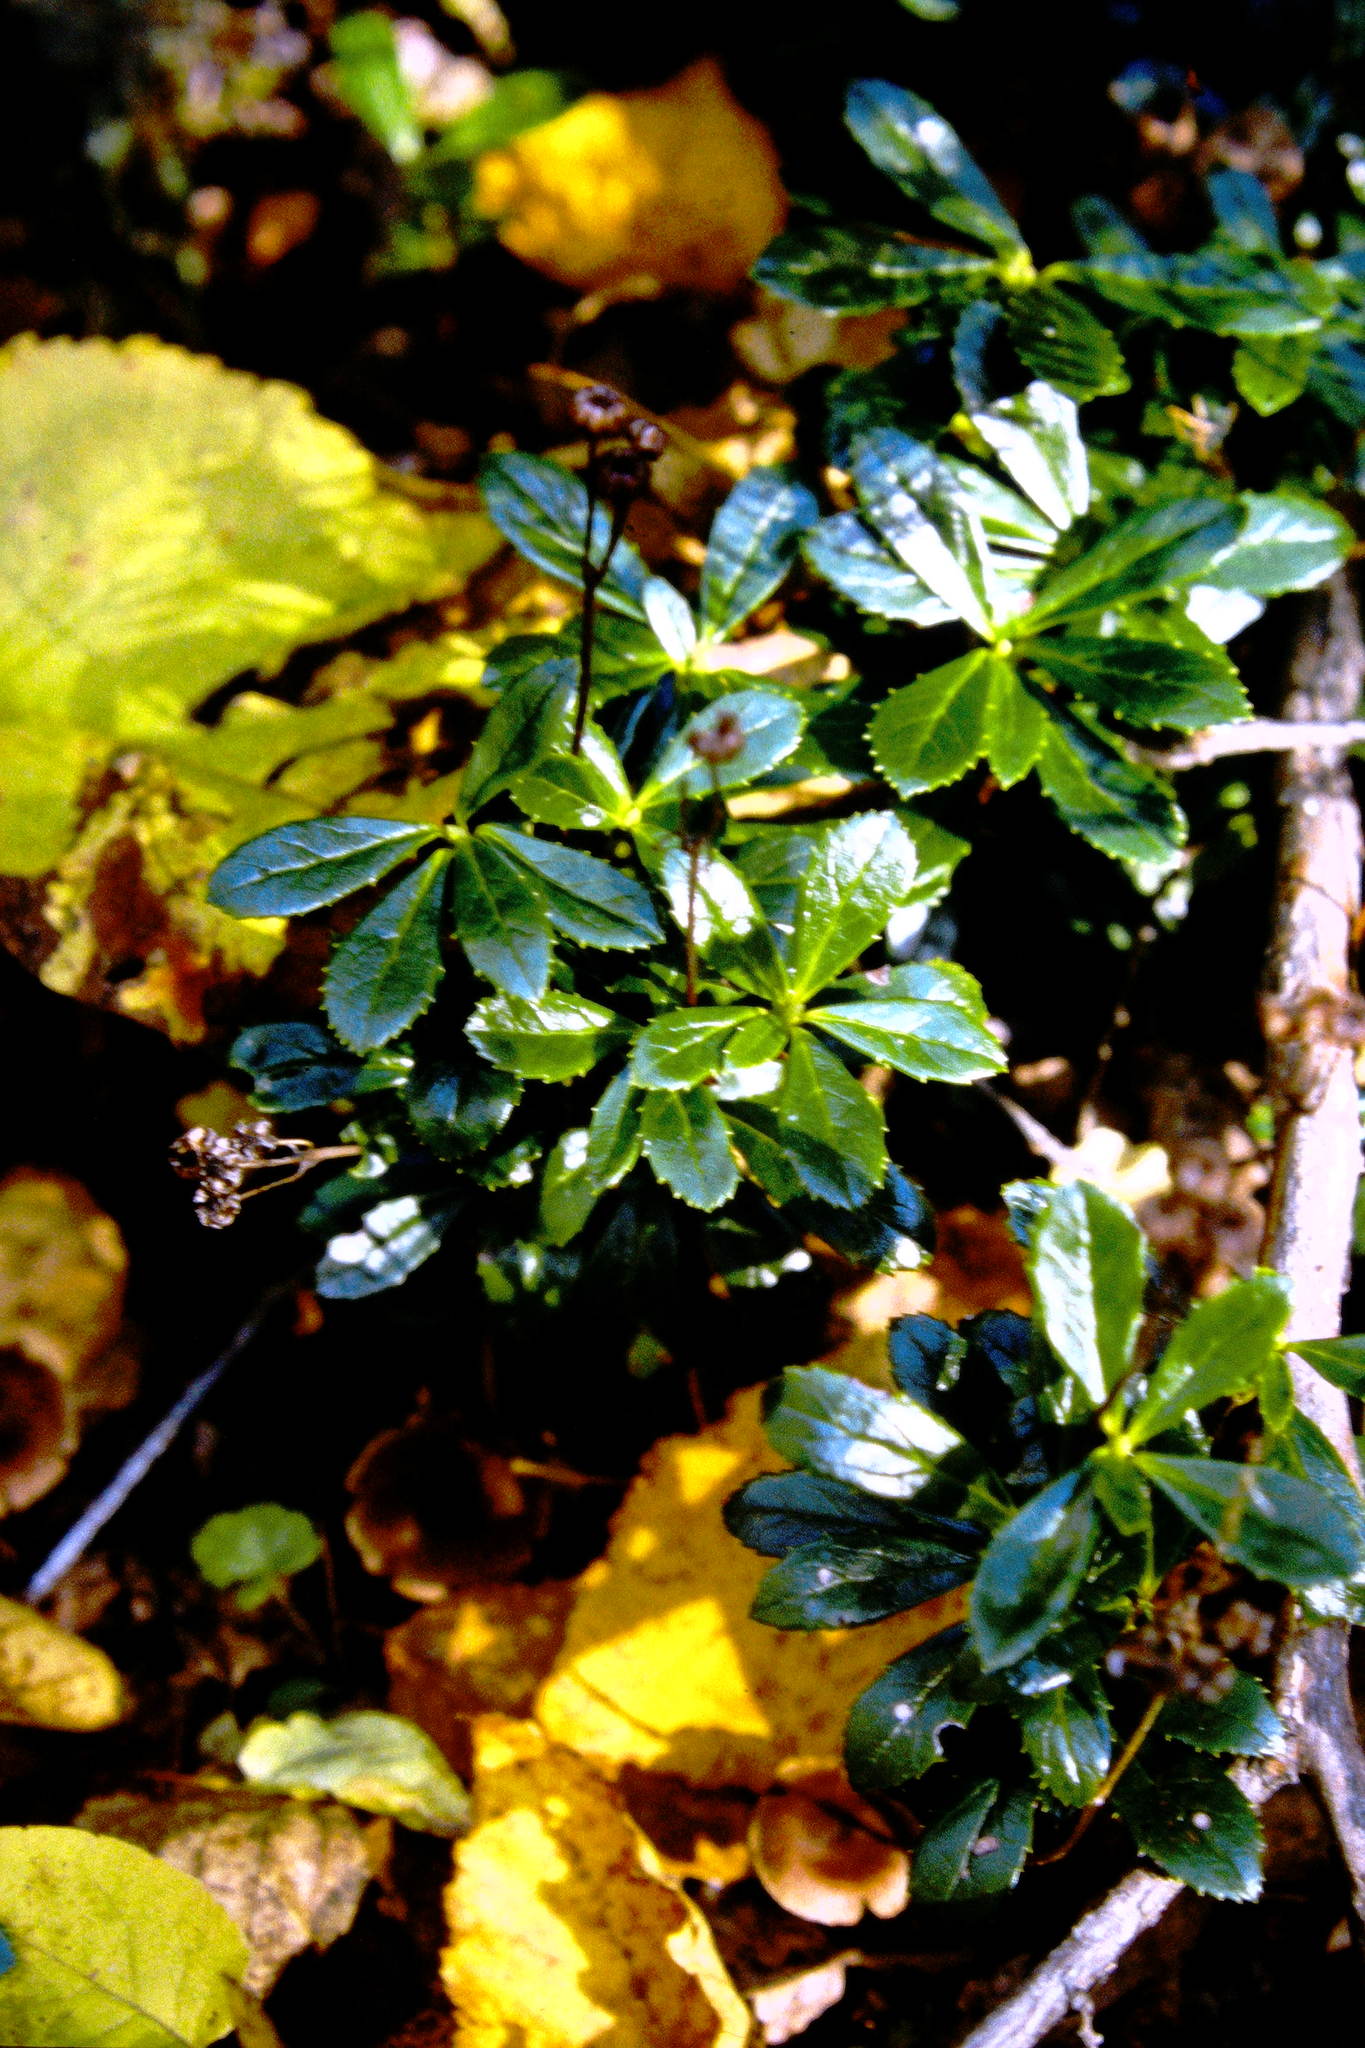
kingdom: Plantae
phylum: Tracheophyta
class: Magnoliopsida
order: Ericales
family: Ericaceae
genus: Chimaphila
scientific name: Chimaphila umbellata
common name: Pipsissewa
